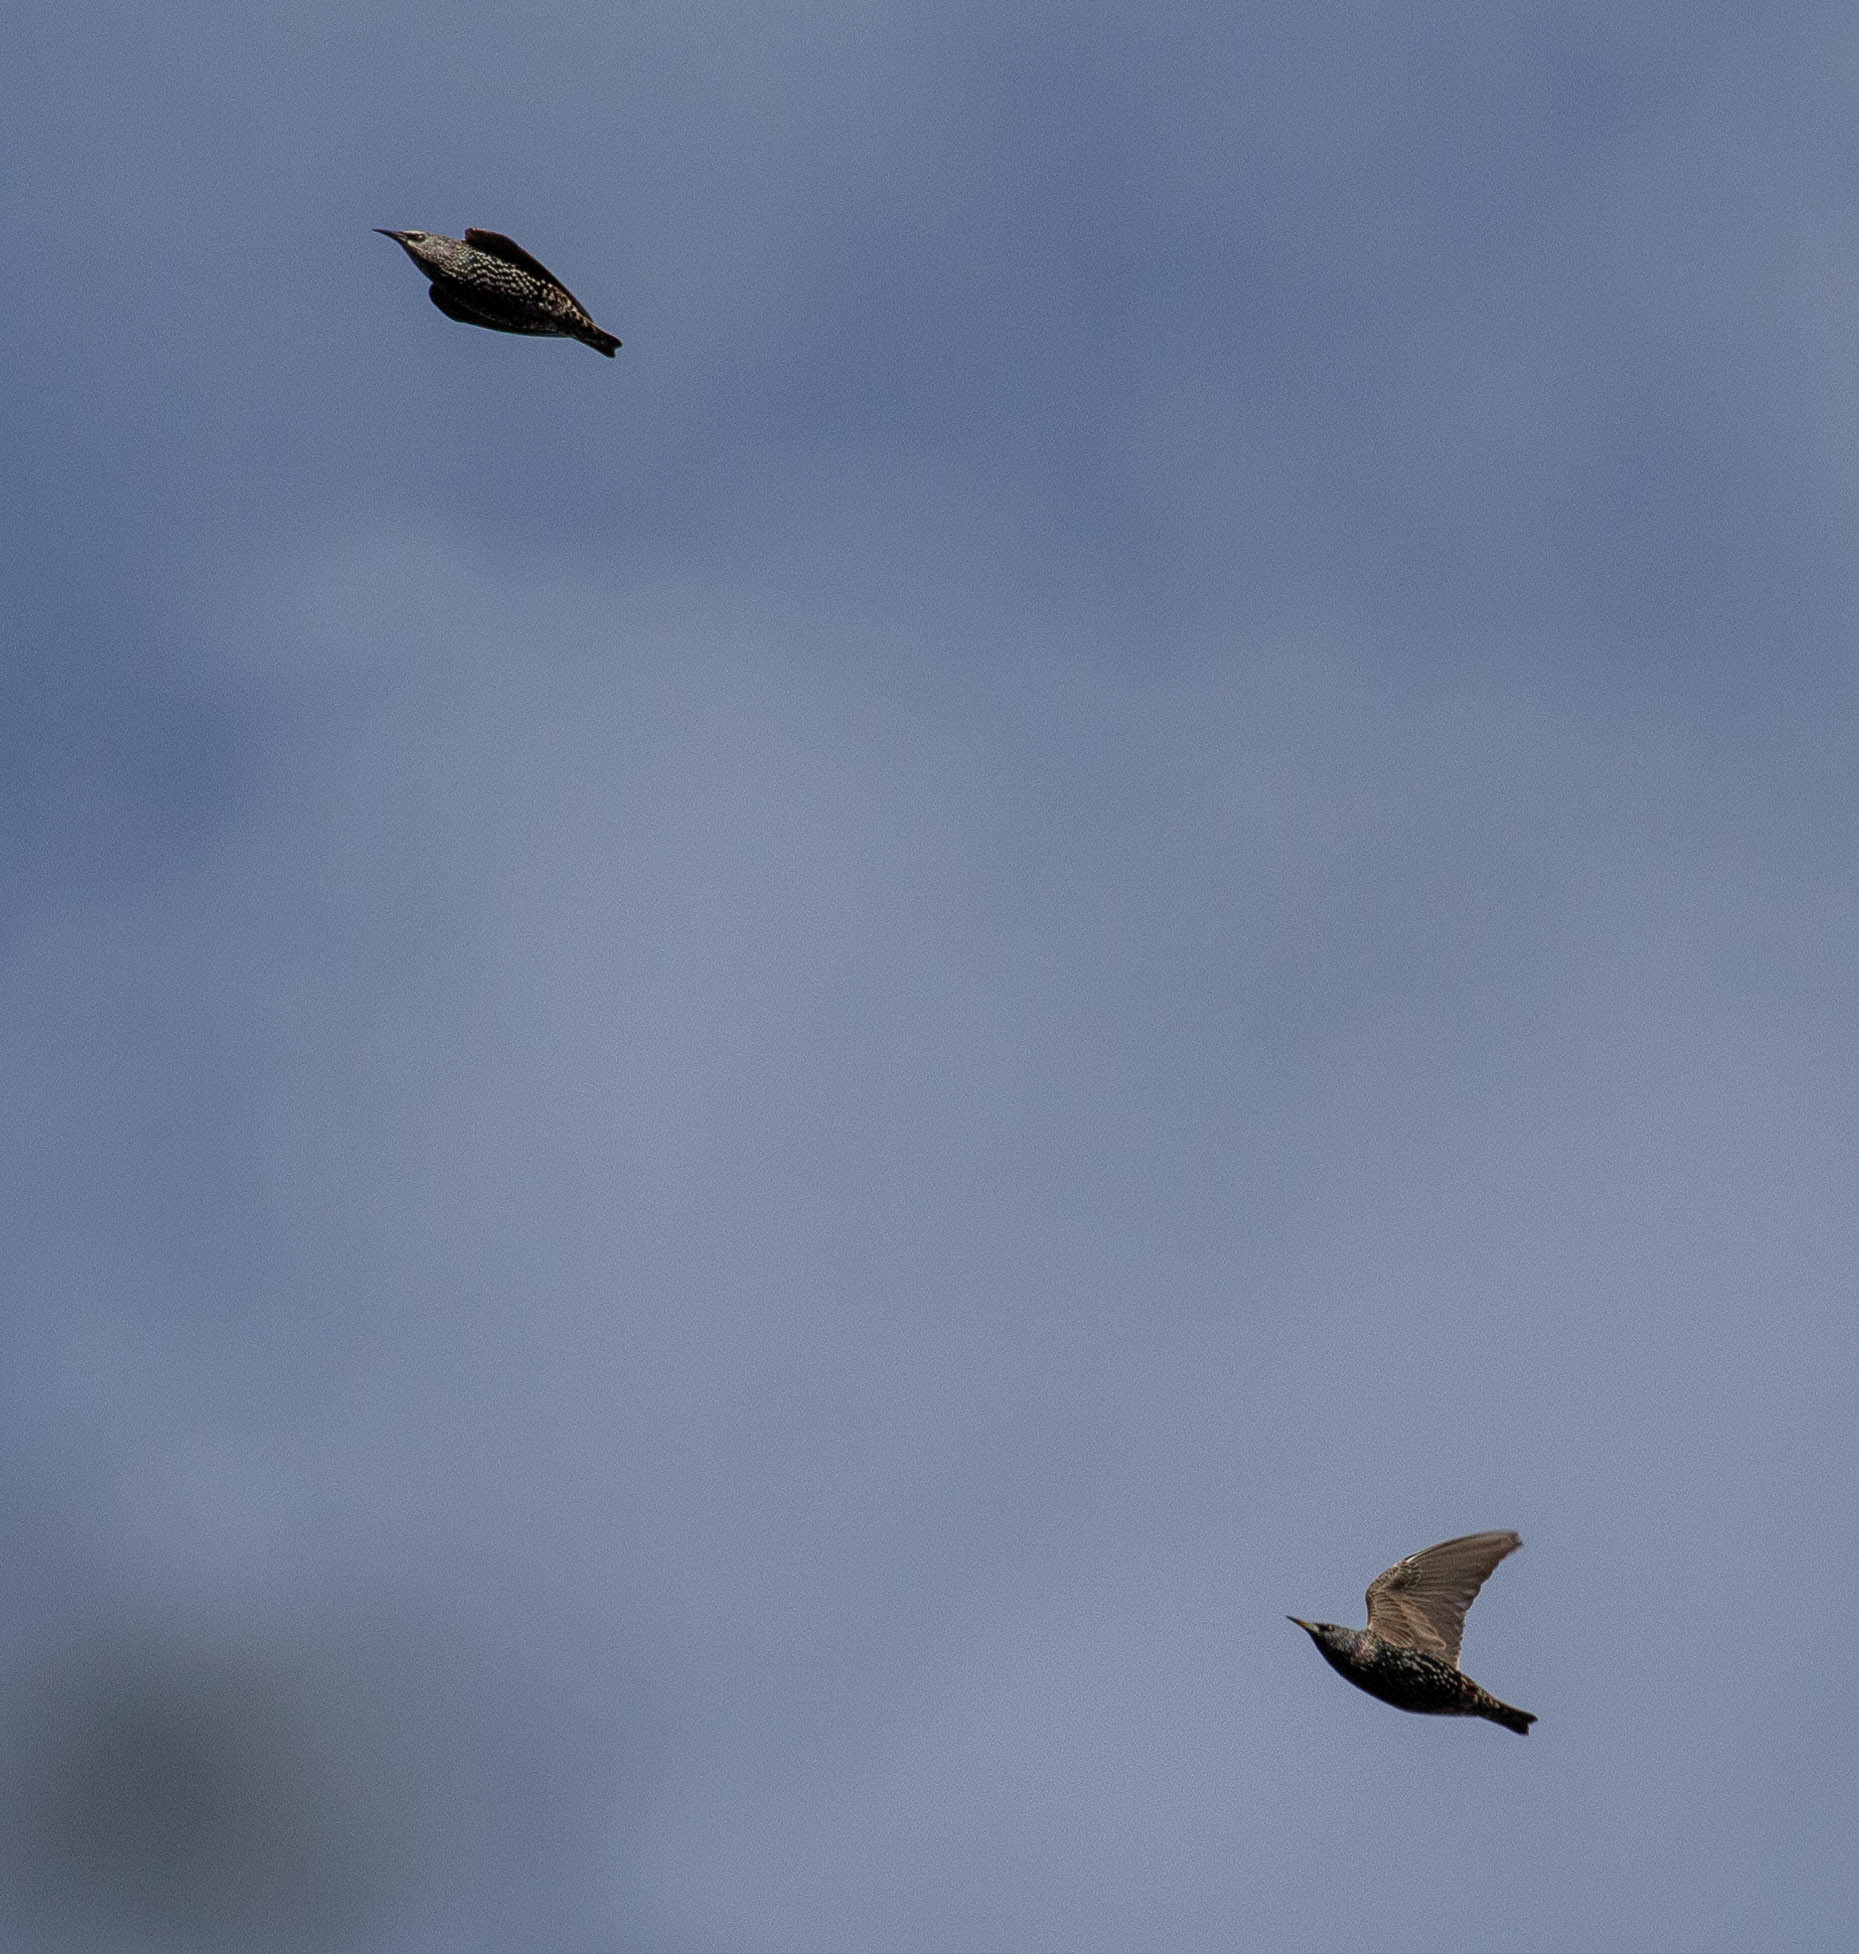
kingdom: Animalia
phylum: Chordata
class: Aves
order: Passeriformes
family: Sturnidae
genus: Sturnus
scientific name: Sturnus vulgaris
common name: Common starling
